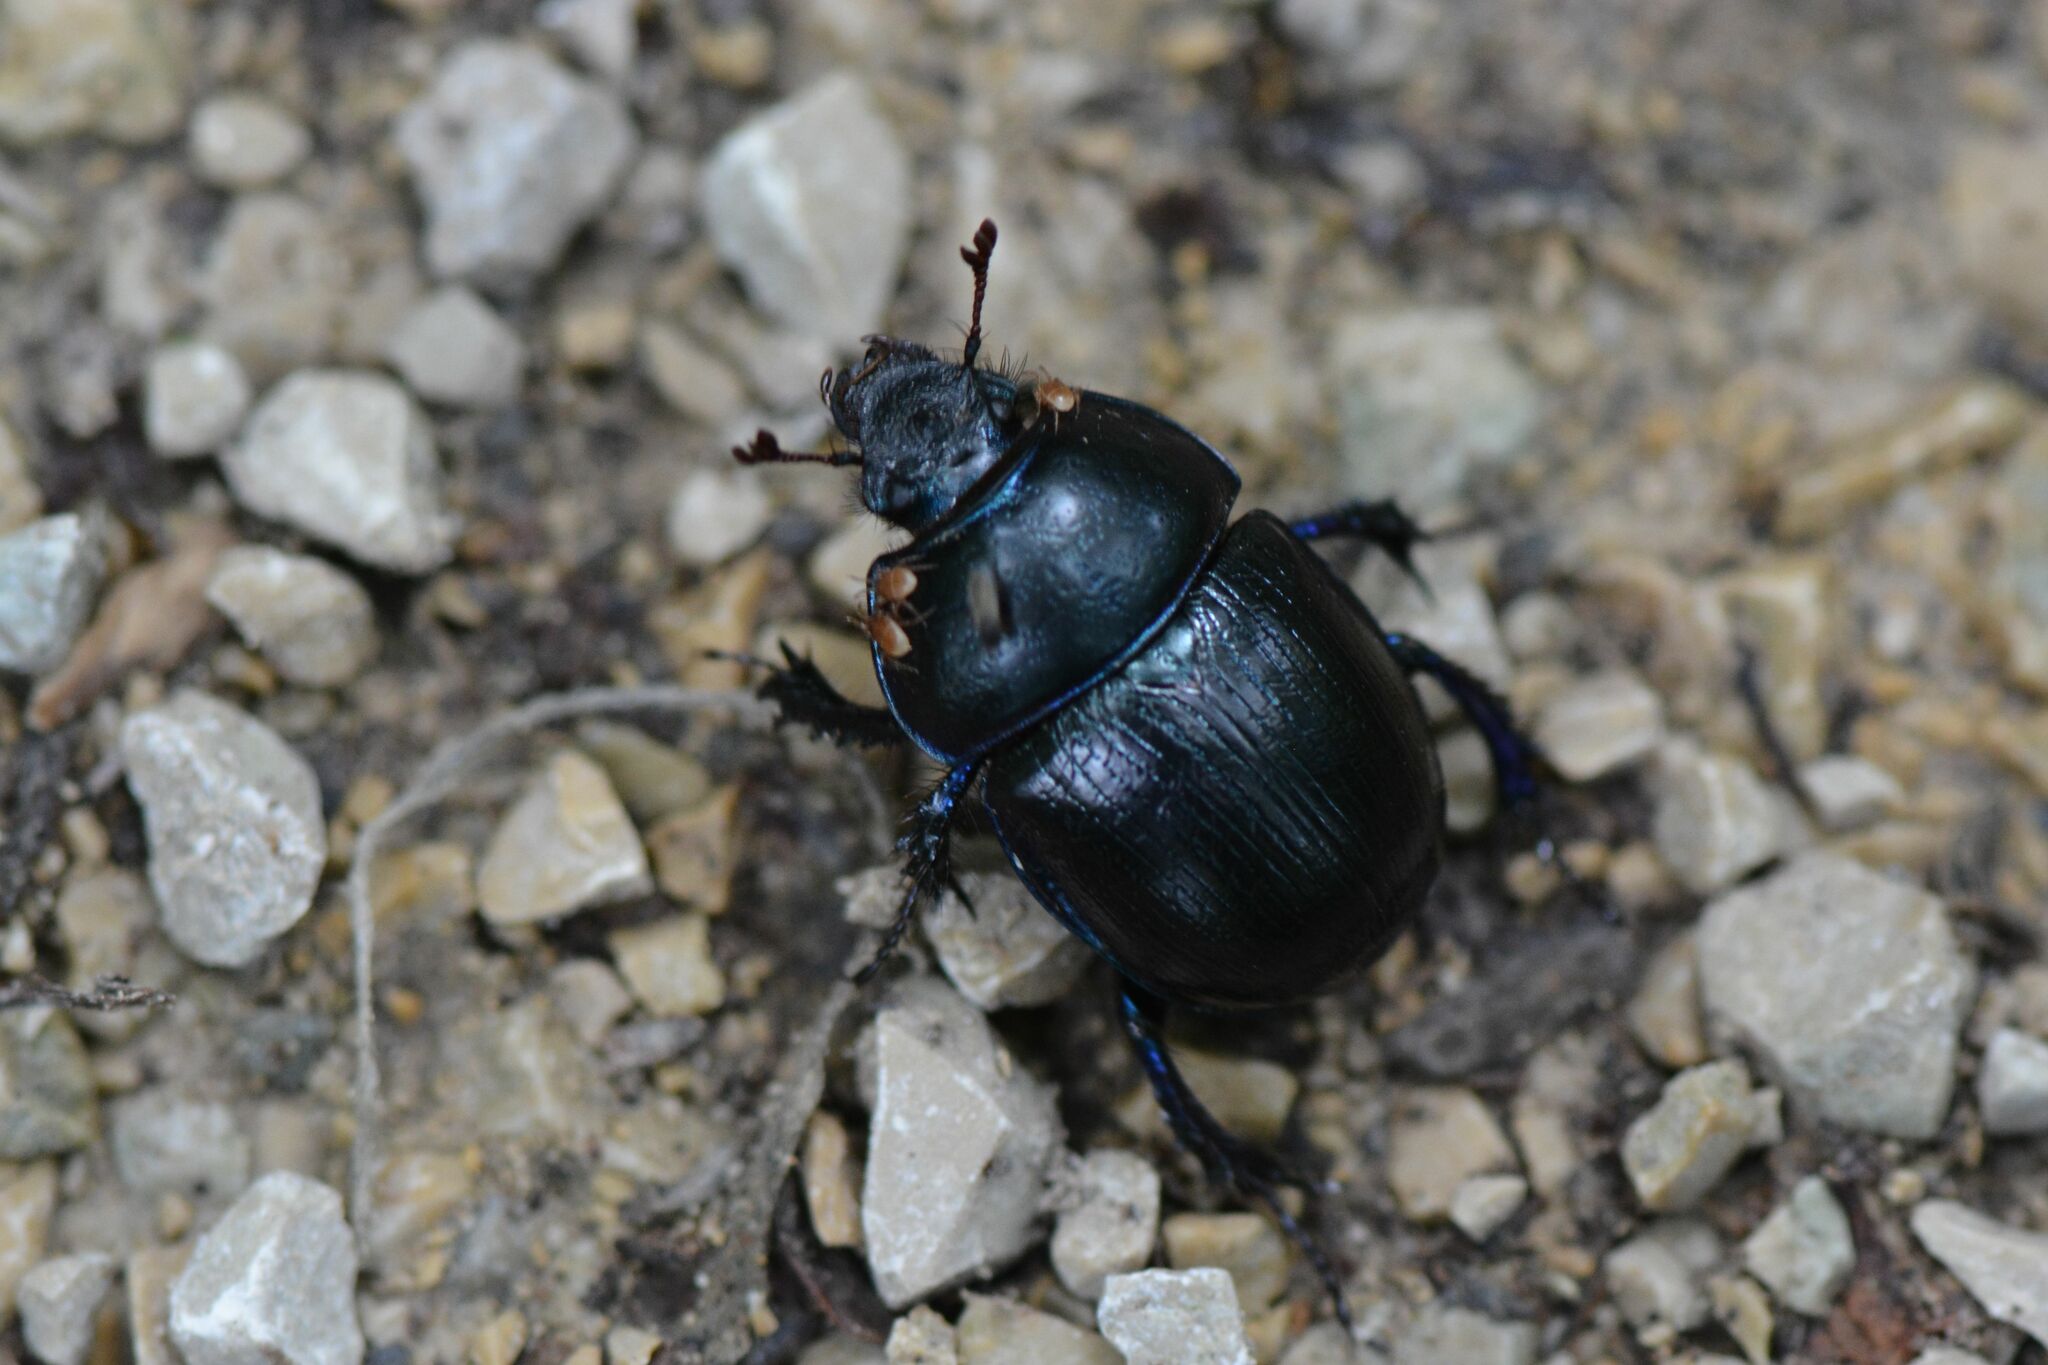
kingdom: Animalia
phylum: Arthropoda
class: Insecta
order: Coleoptera
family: Geotrupidae
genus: Anoplotrupes
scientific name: Anoplotrupes stercorosus
